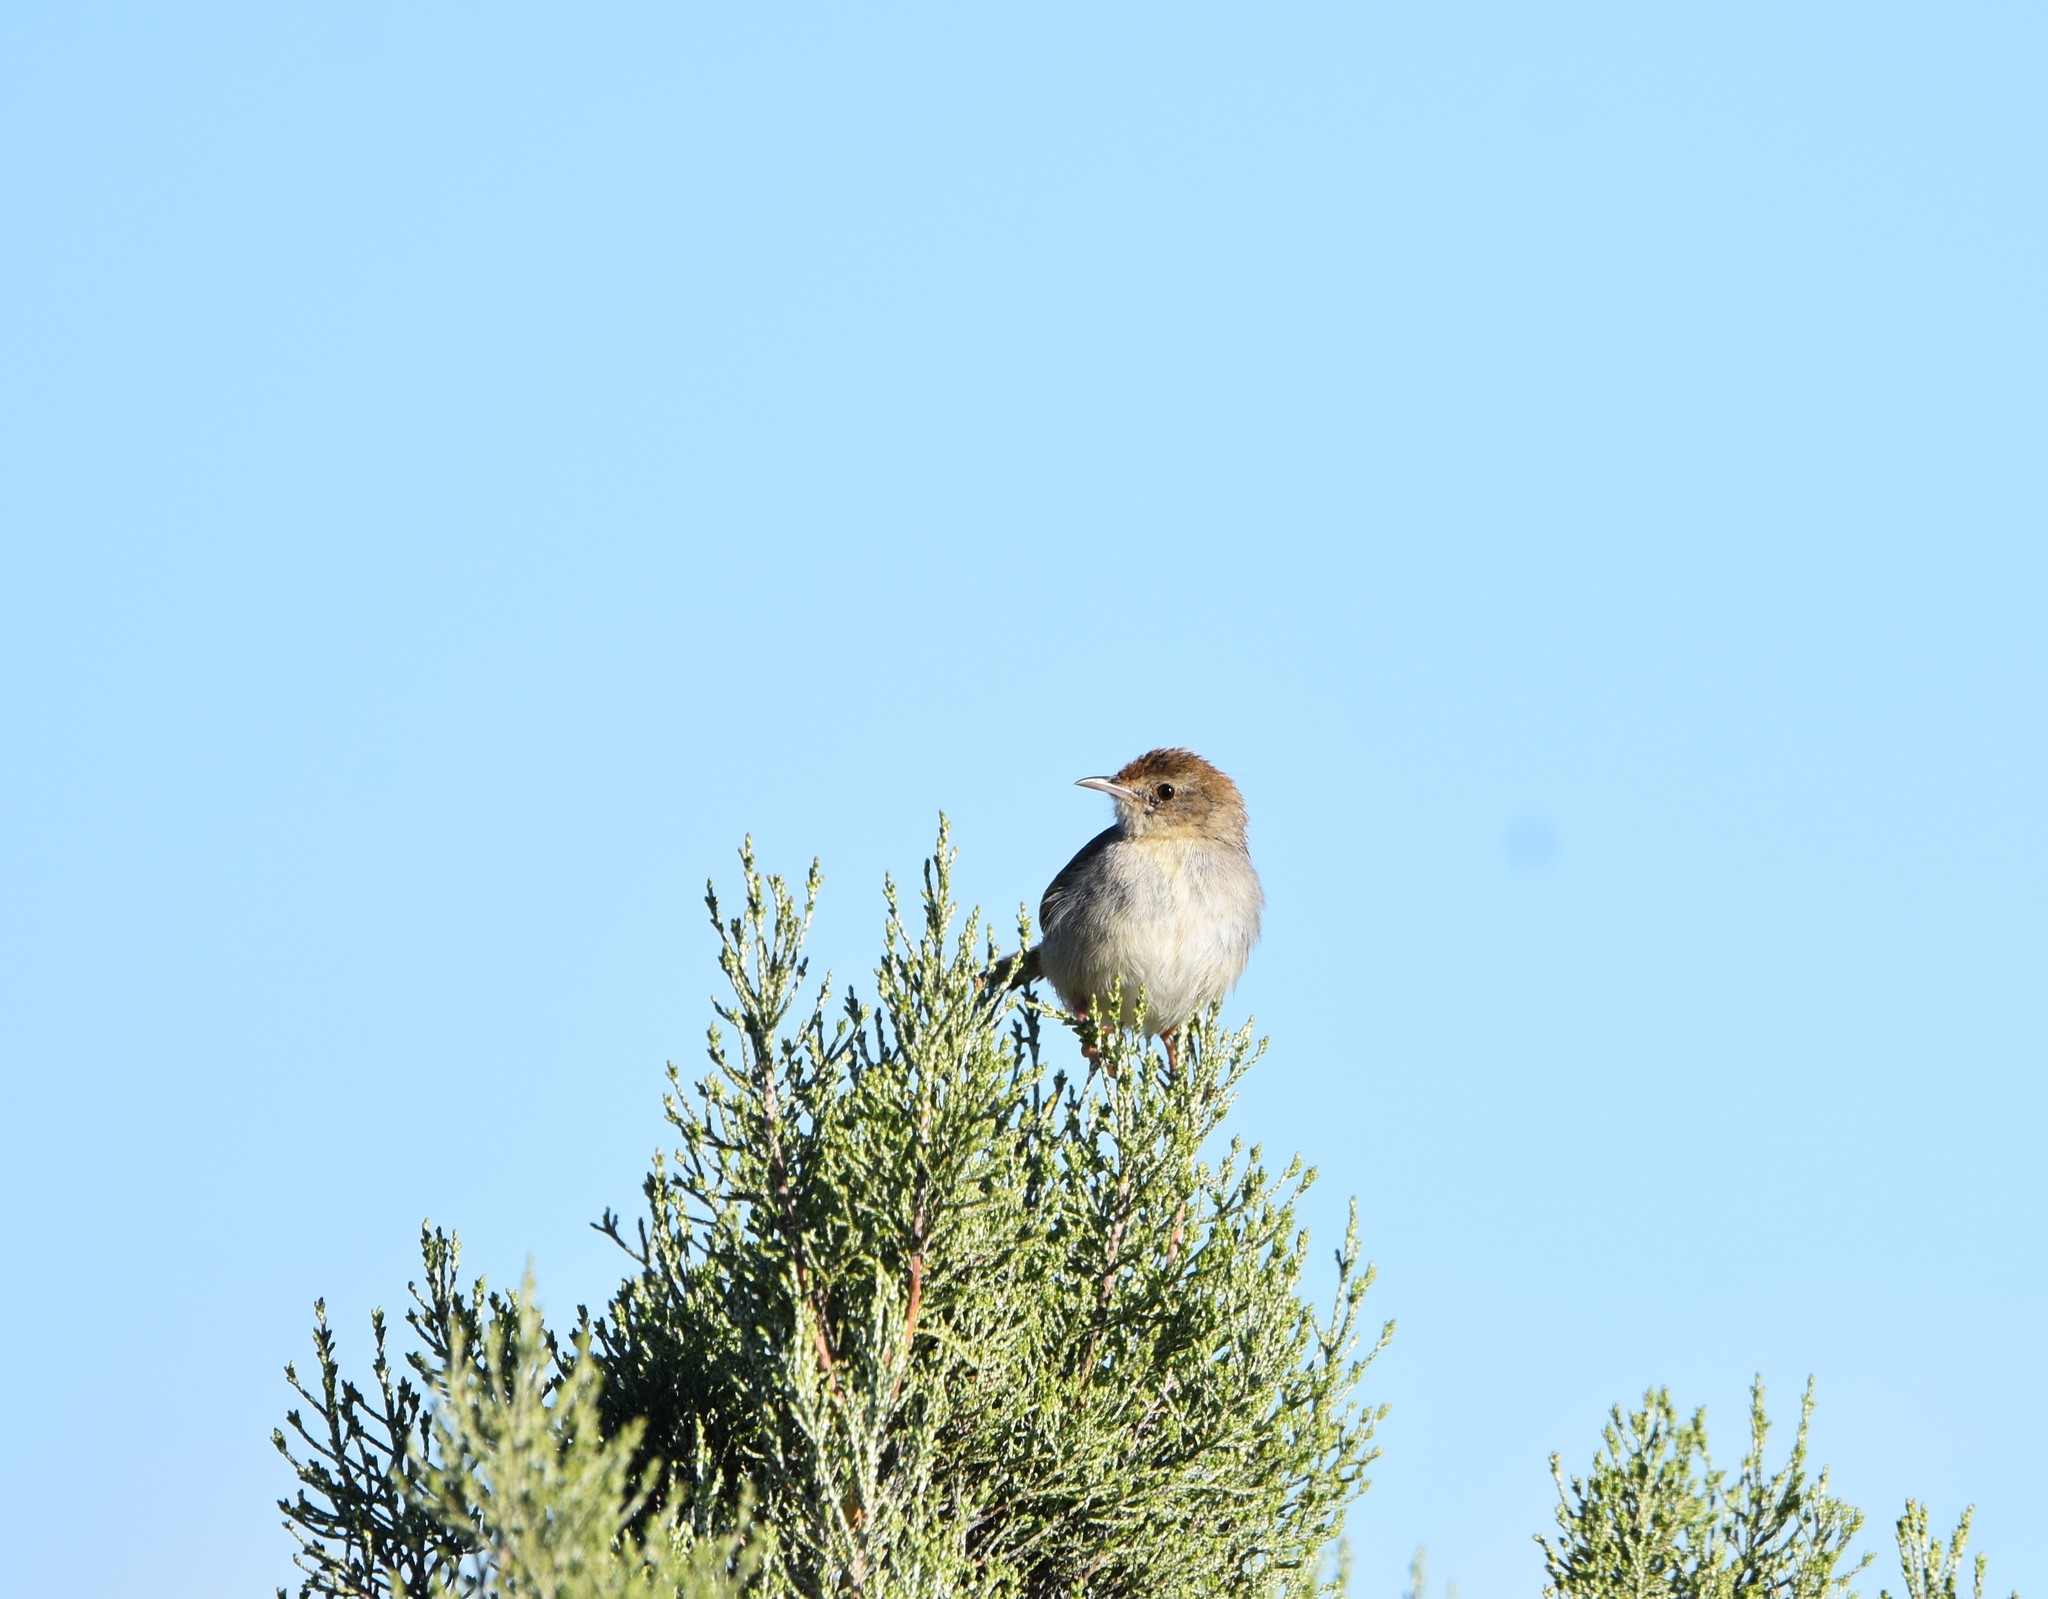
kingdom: Animalia
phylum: Chordata
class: Aves
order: Passeriformes
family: Cisticolidae
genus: Cisticola
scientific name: Cisticola subruficapilla
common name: Grey-backed cisticola
